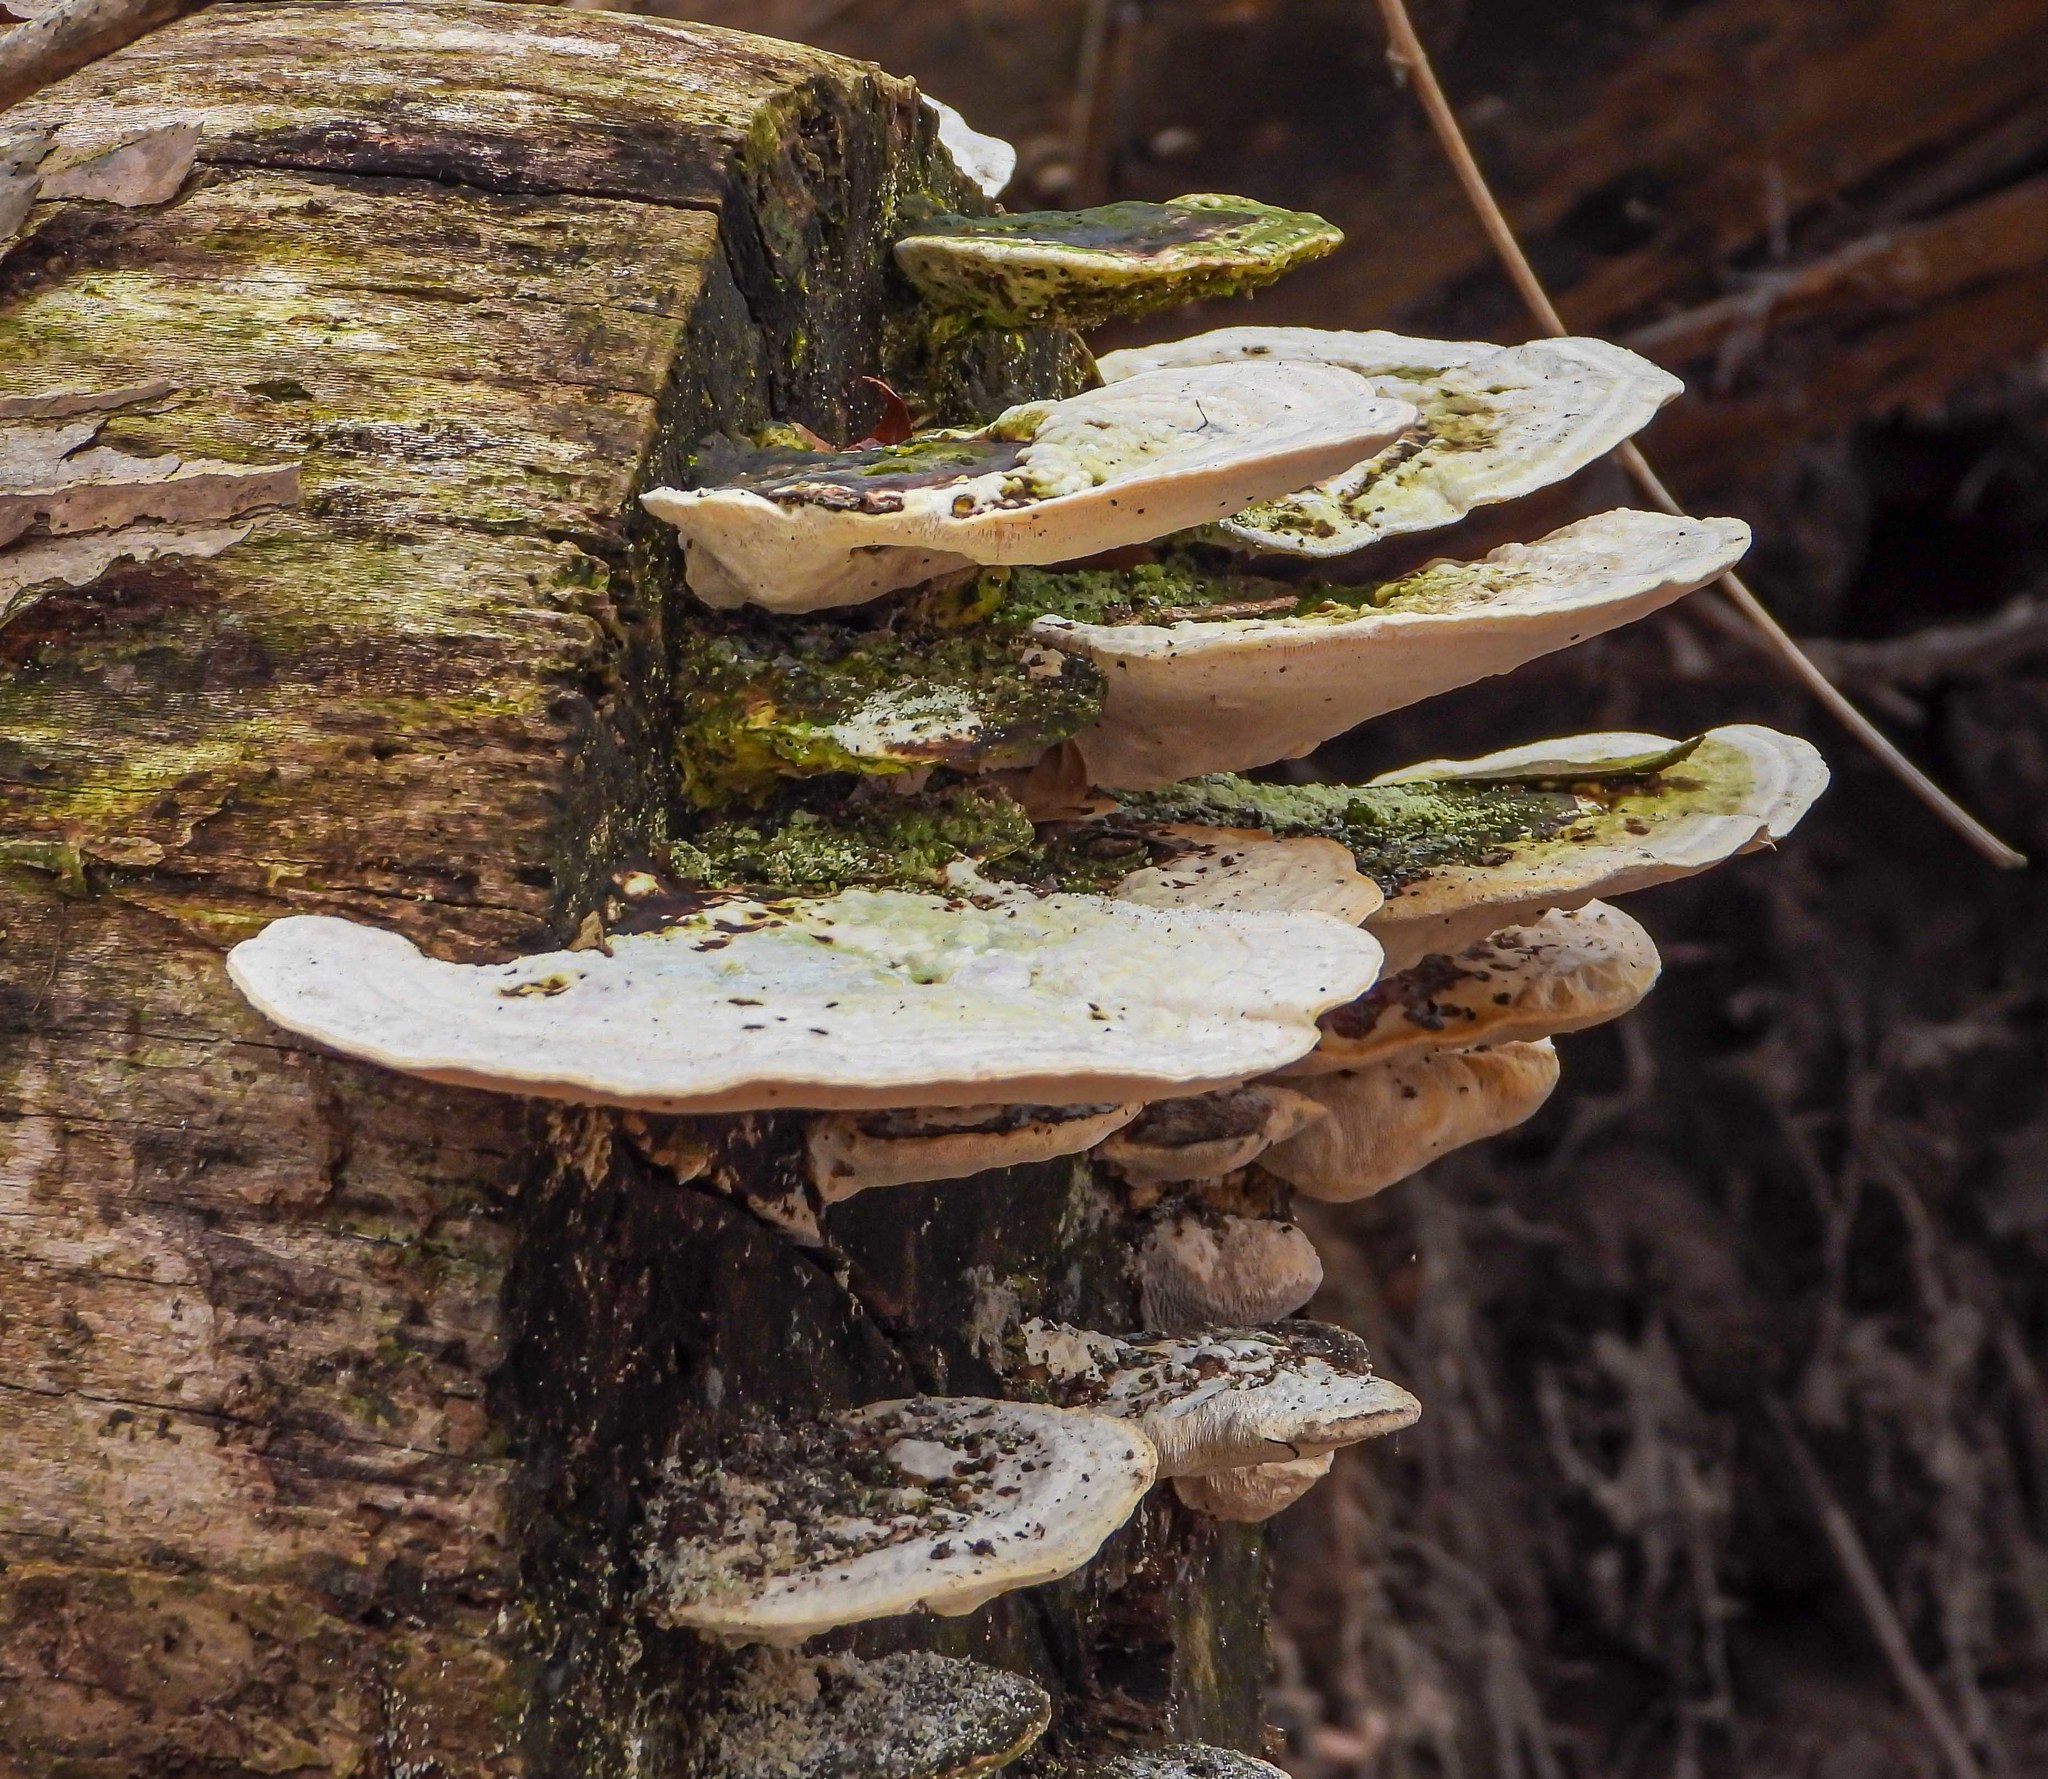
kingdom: Fungi
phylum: Basidiomycota
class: Agaricomycetes
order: Polyporales
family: Polyporaceae
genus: Trametes
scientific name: Trametes gibbosa
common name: Lumpy bracket
